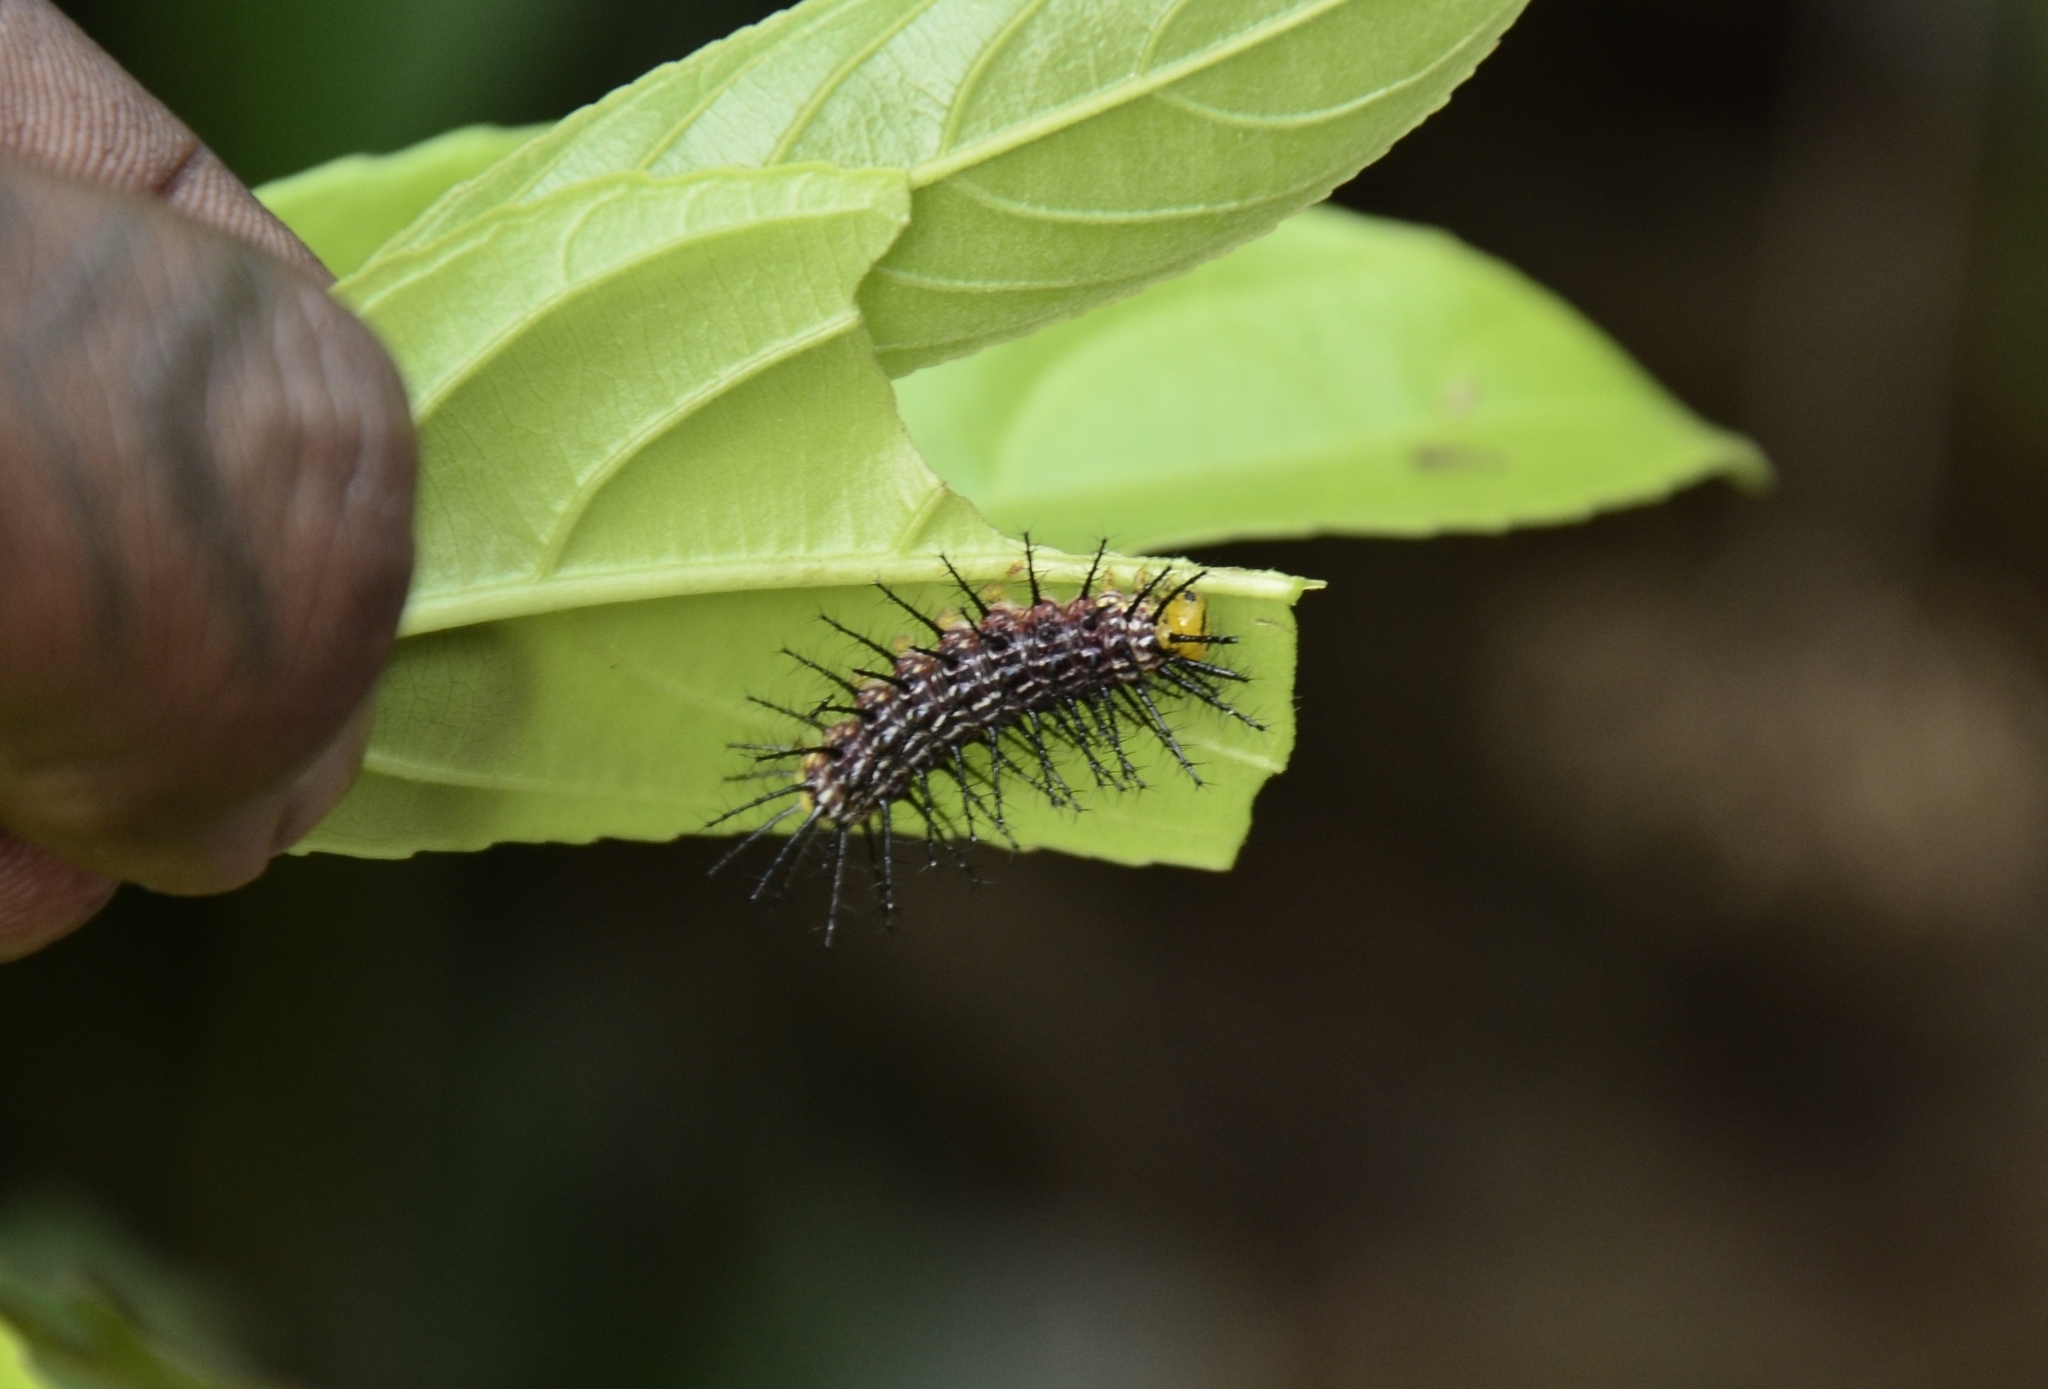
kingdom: Animalia
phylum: Arthropoda
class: Insecta
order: Lepidoptera
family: Nymphalidae
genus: Cirrochroa
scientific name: Cirrochroa thais
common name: Tamil yeoman
